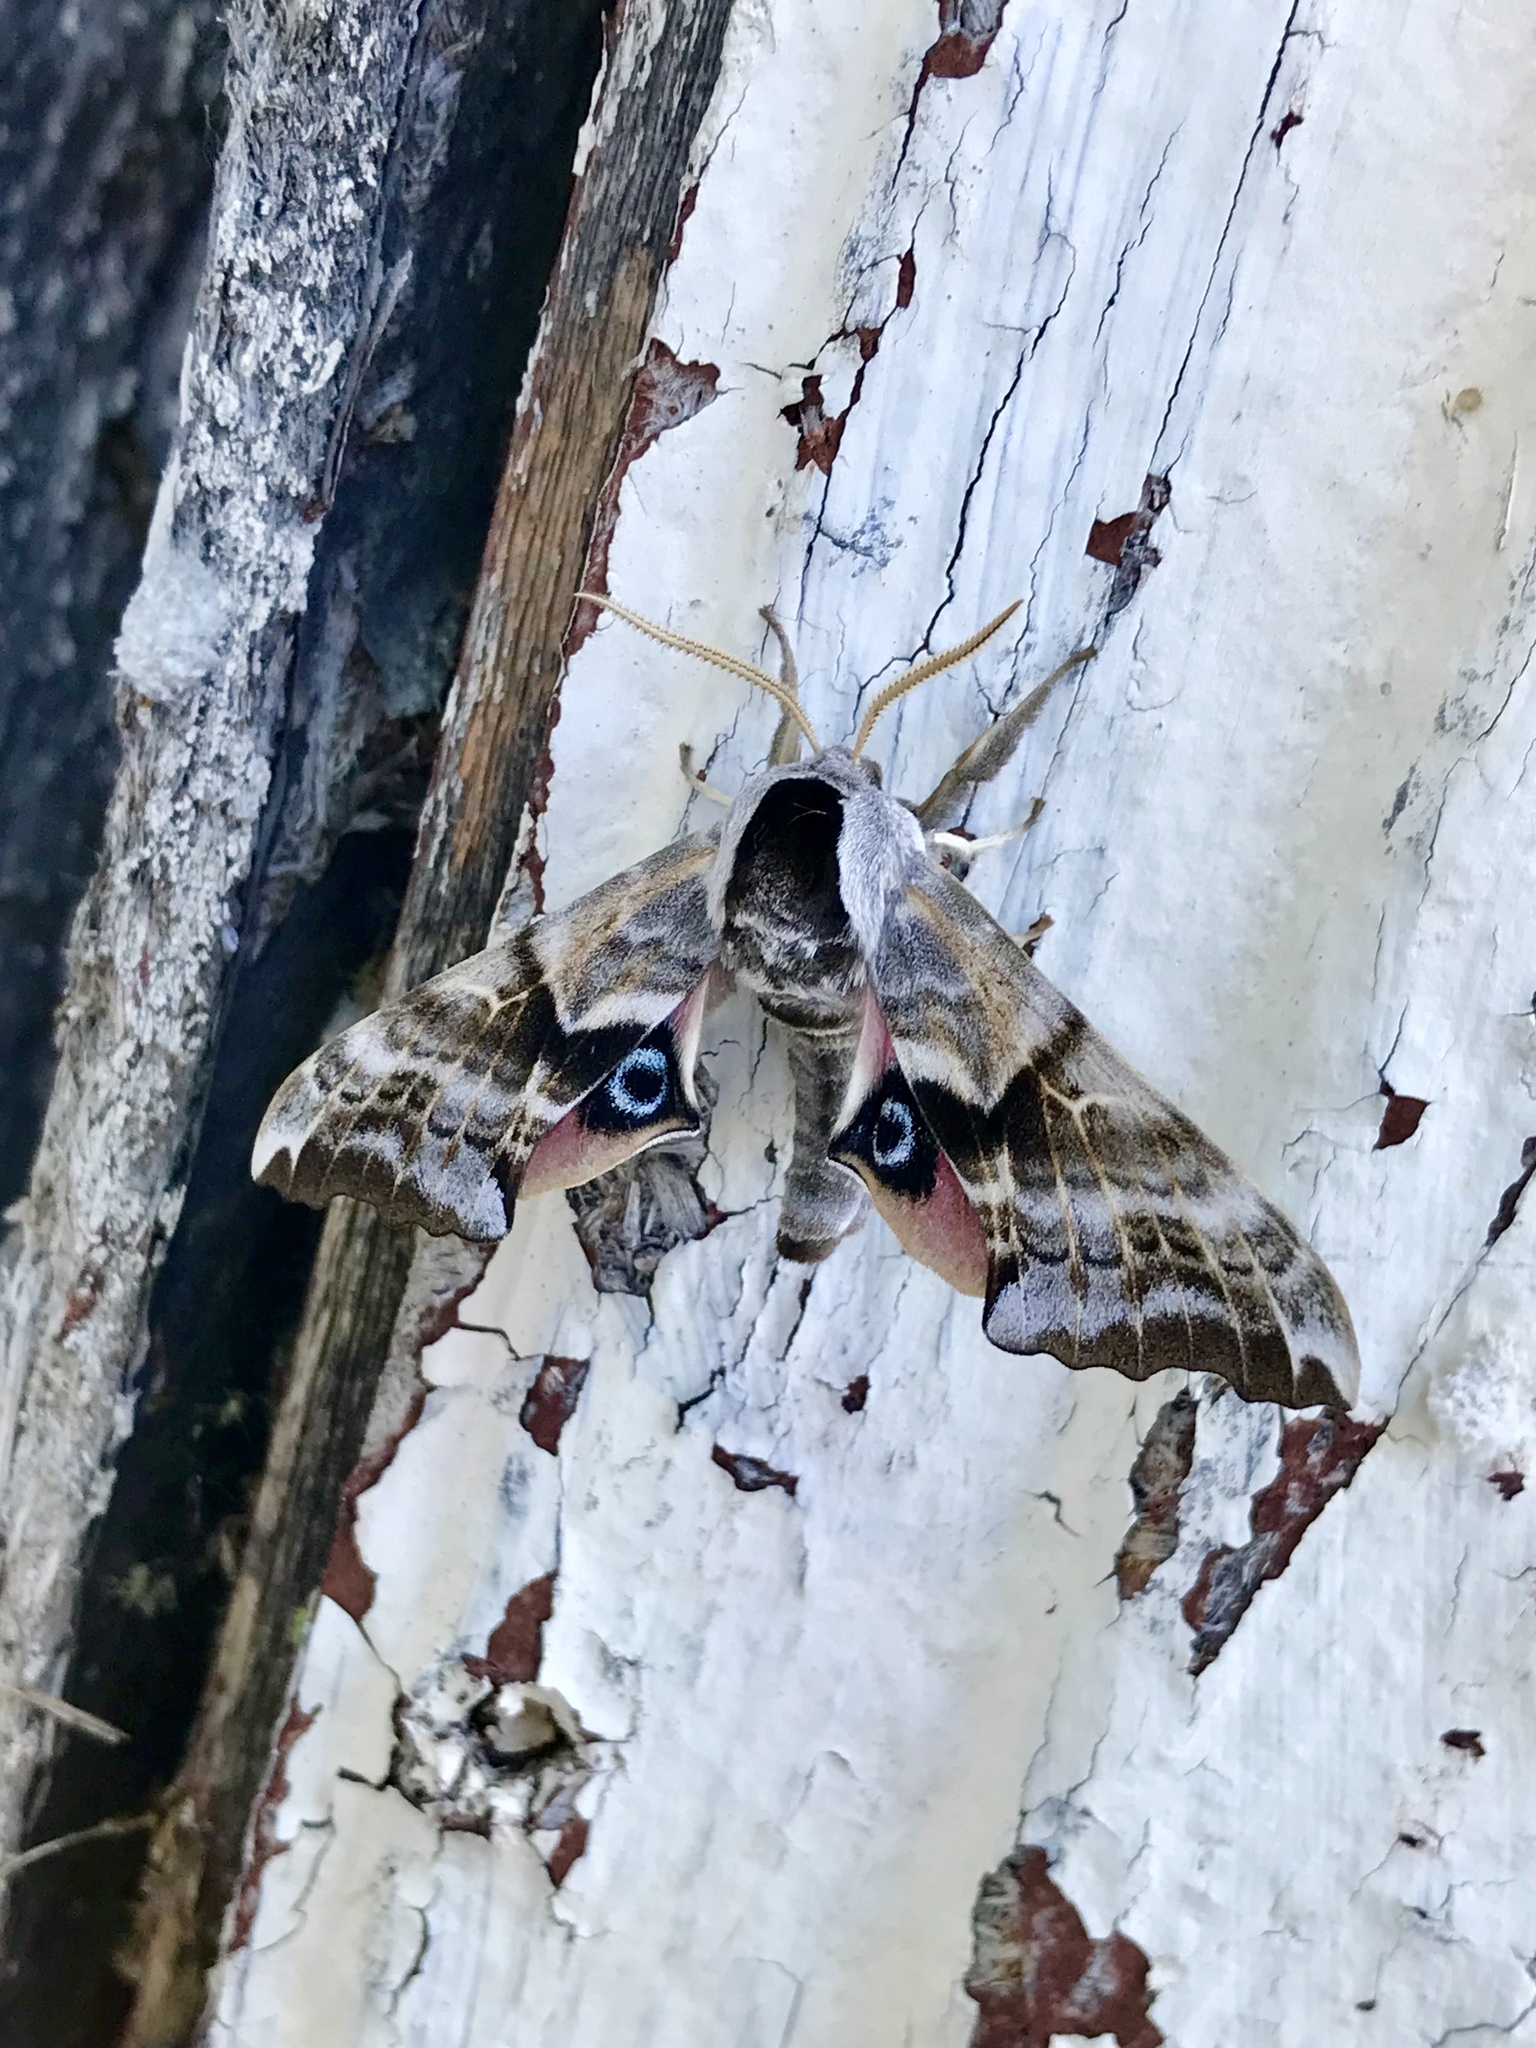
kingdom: Animalia
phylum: Arthropoda
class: Insecta
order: Lepidoptera
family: Sphingidae
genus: Smerinthus
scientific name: Smerinthus cerisyi
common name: Cerisy's sphinx moth
